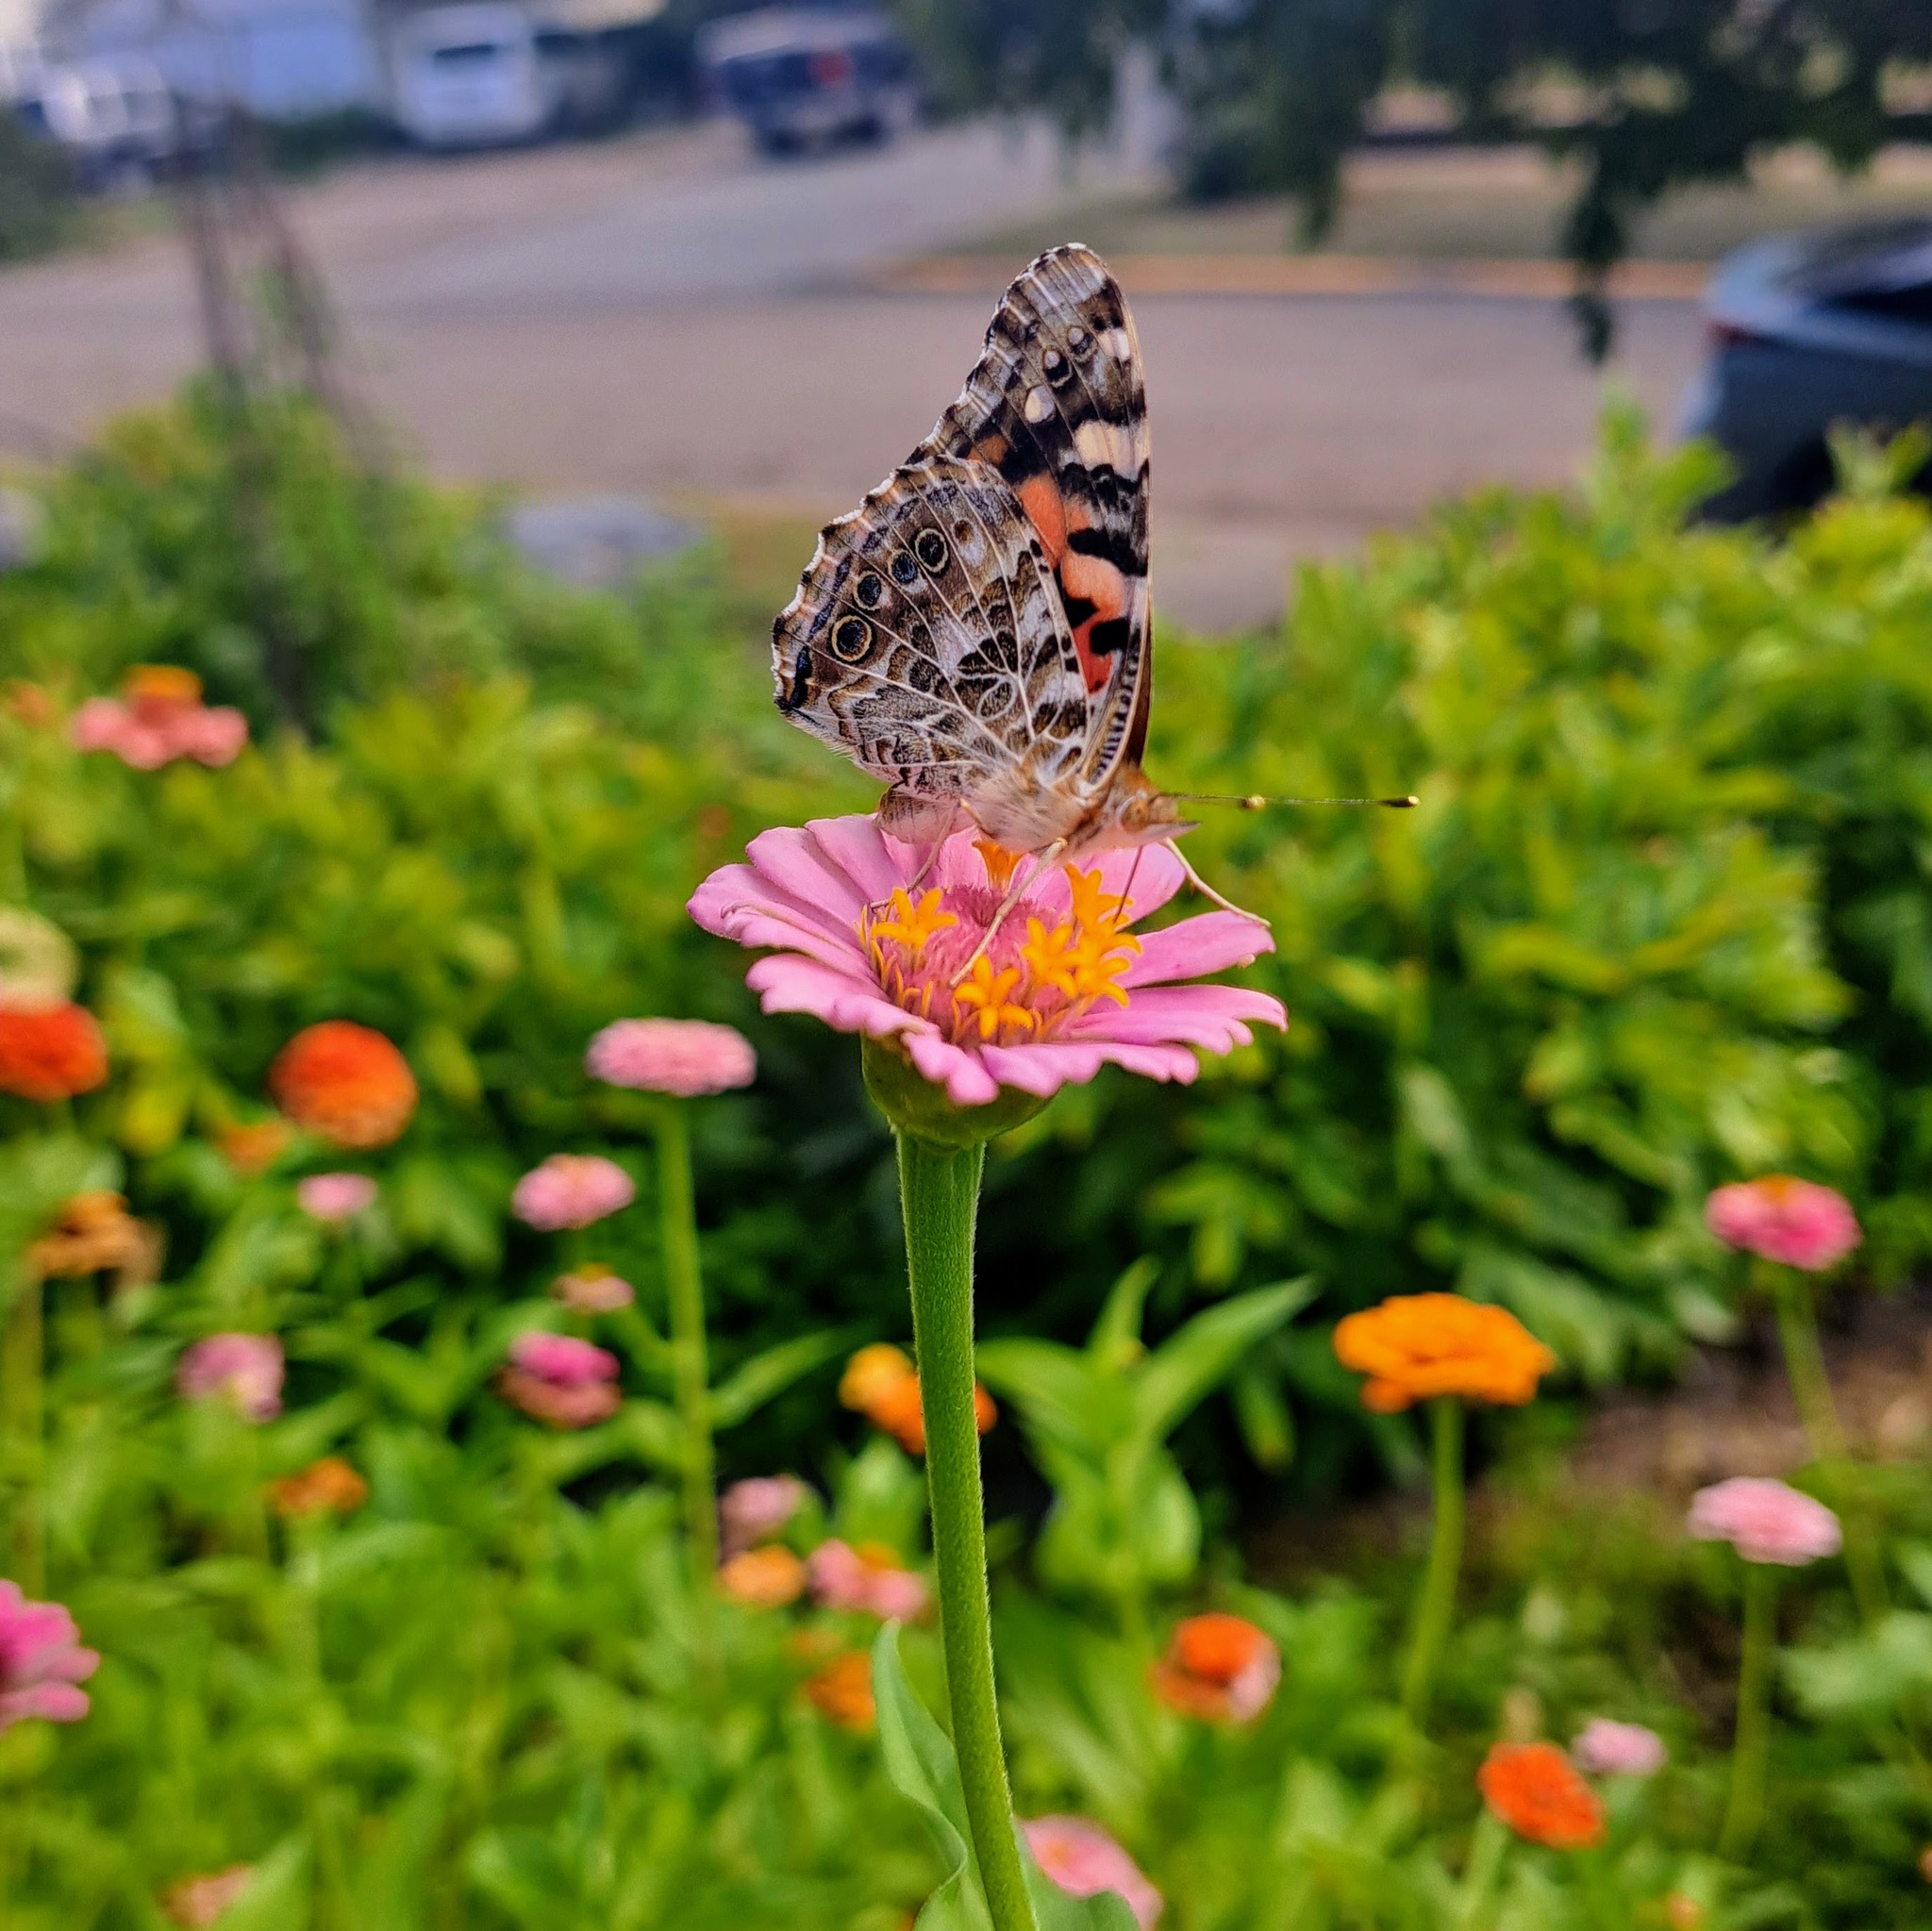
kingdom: Animalia
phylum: Arthropoda
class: Insecta
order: Lepidoptera
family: Nymphalidae
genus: Vanessa
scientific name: Vanessa cardui
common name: Painted lady
